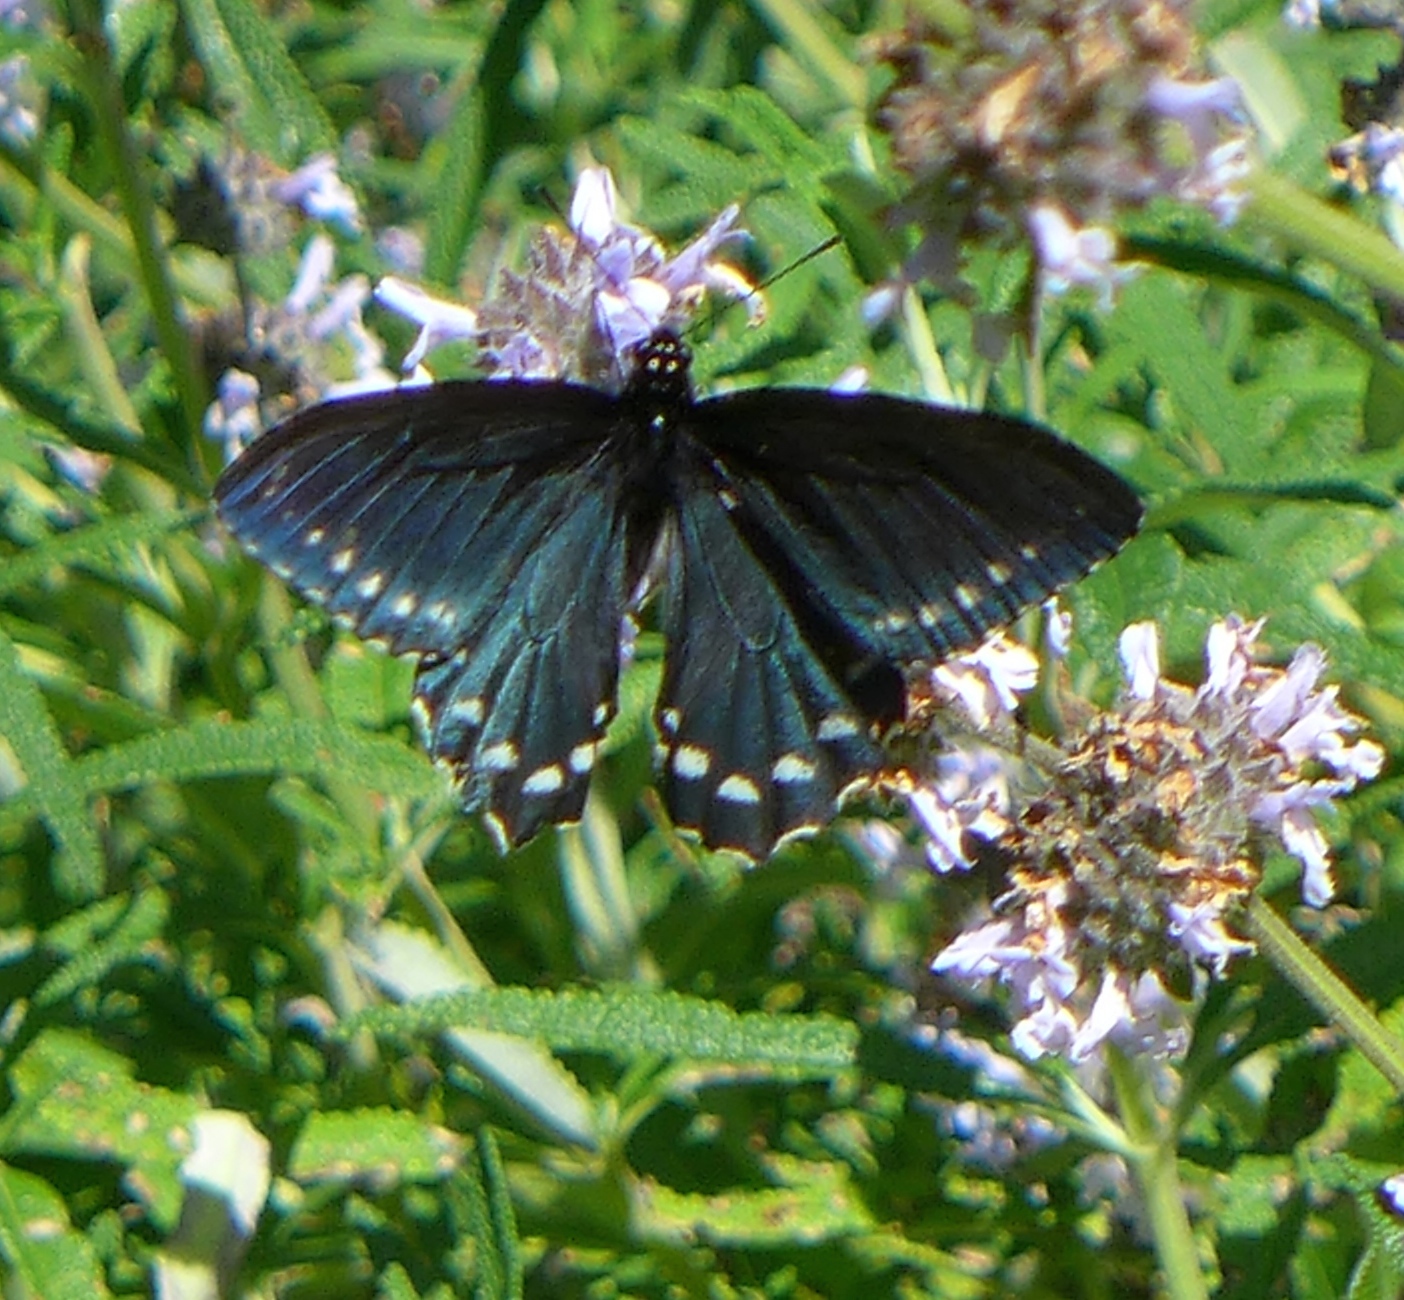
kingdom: Animalia
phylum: Arthropoda
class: Insecta
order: Lepidoptera
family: Papilionidae
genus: Battus
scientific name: Battus philenor
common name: Pipevine swallowtail
